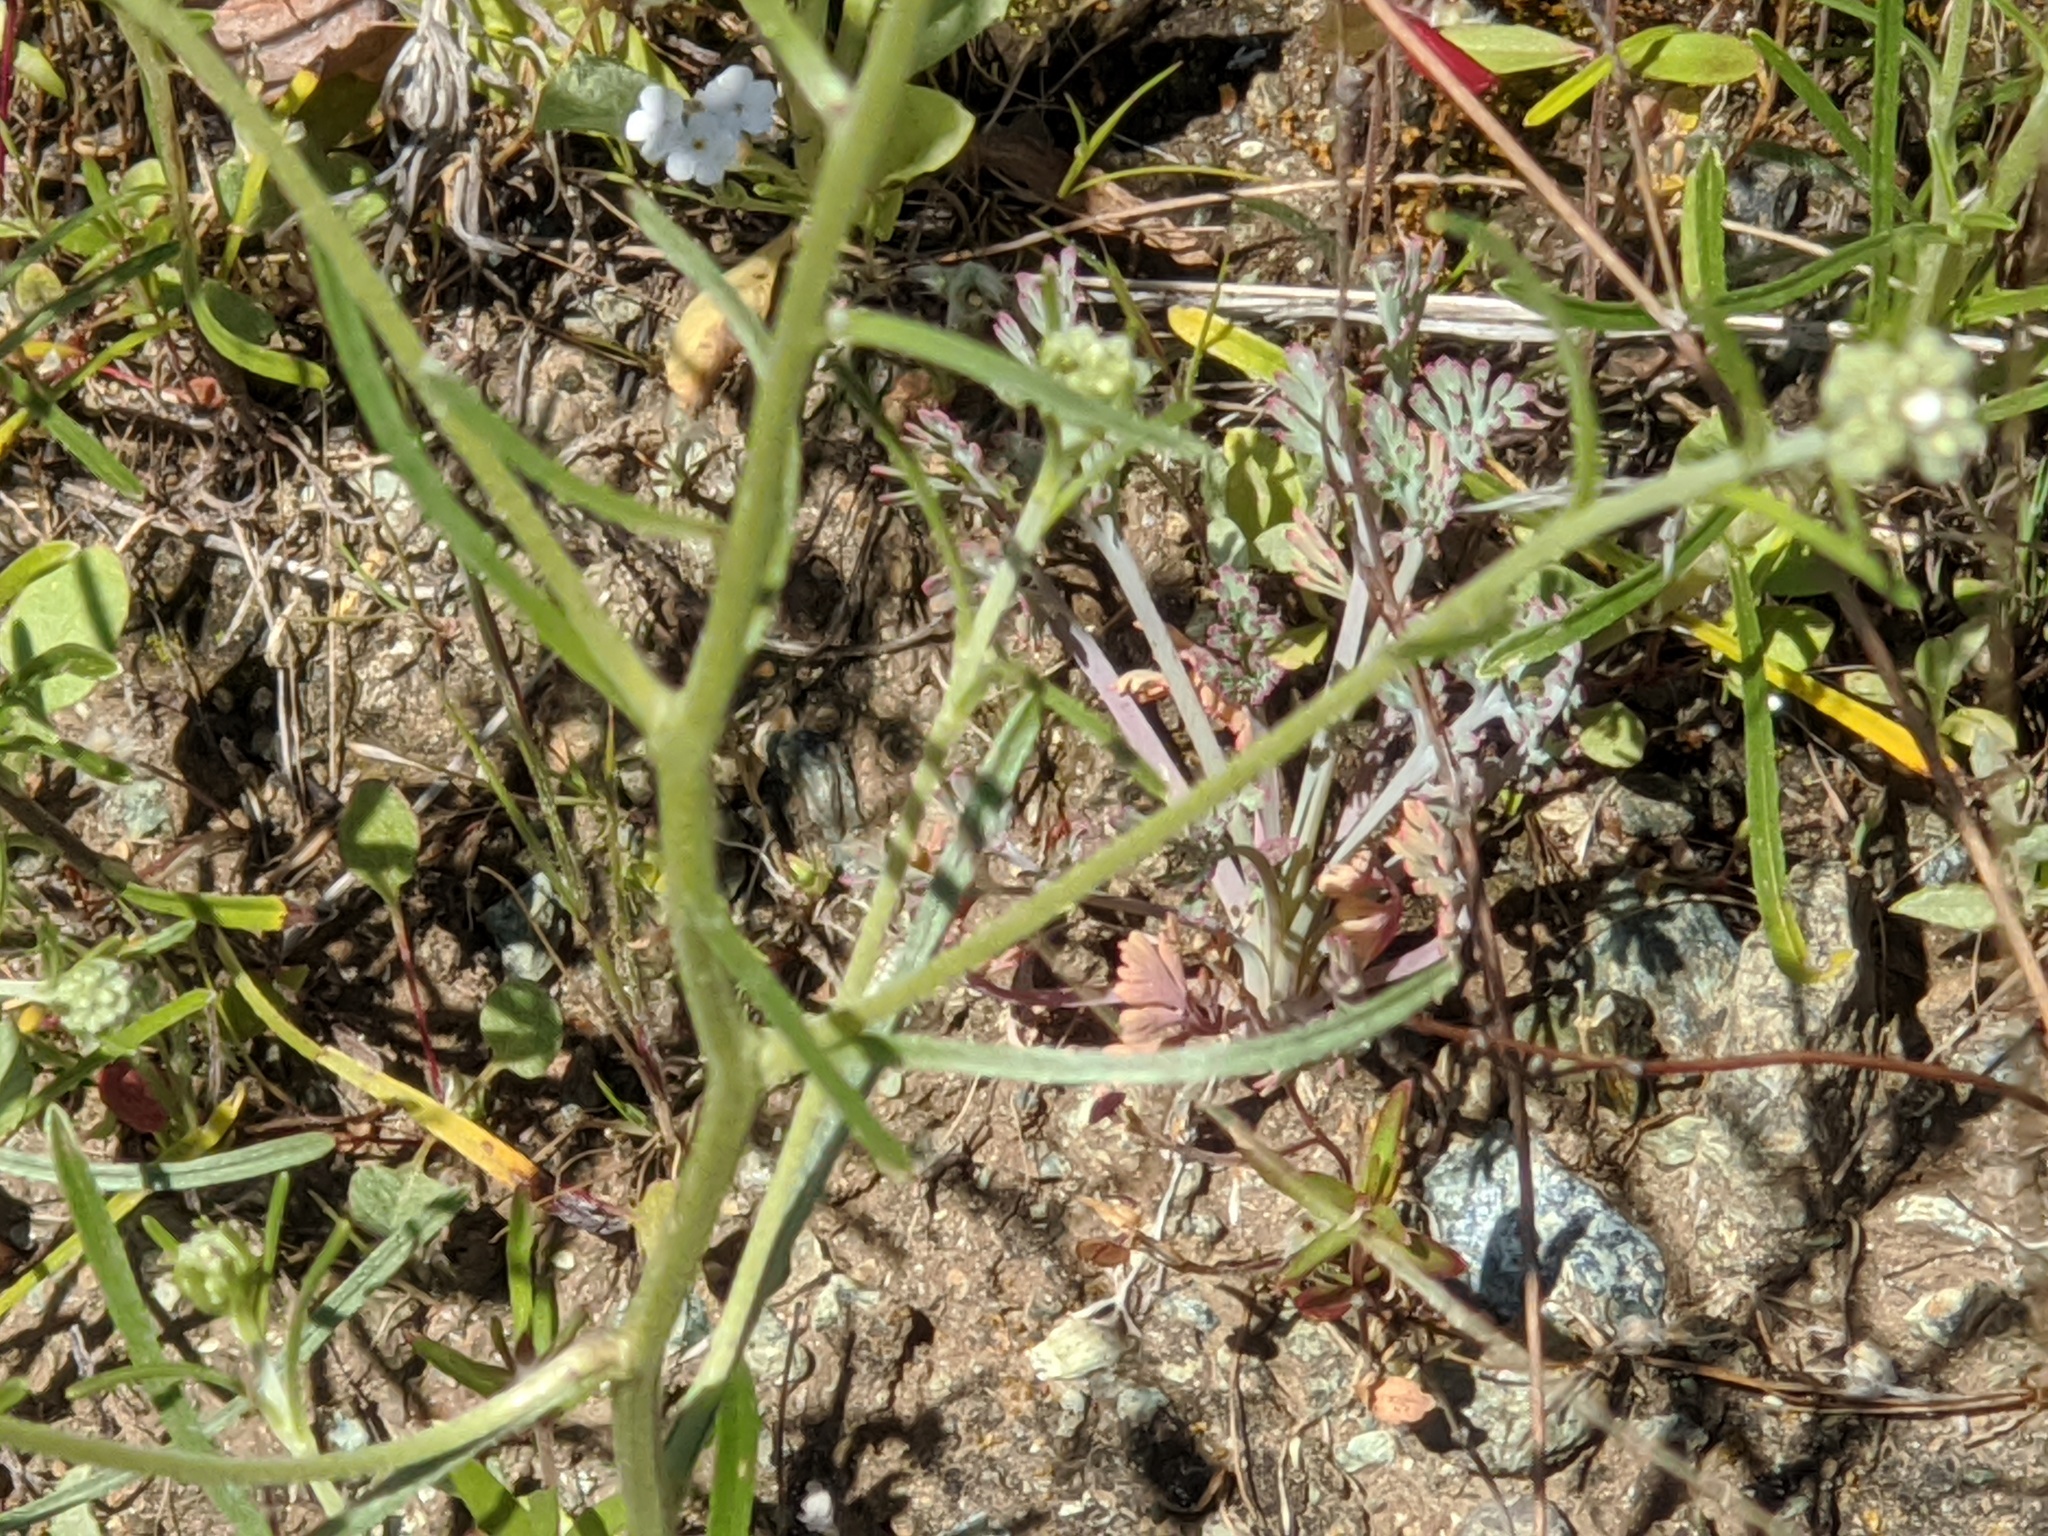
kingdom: Plantae
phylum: Tracheophyta
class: Magnoliopsida
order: Boraginales
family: Boraginaceae
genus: Cryptantha
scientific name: Cryptantha flaccida
